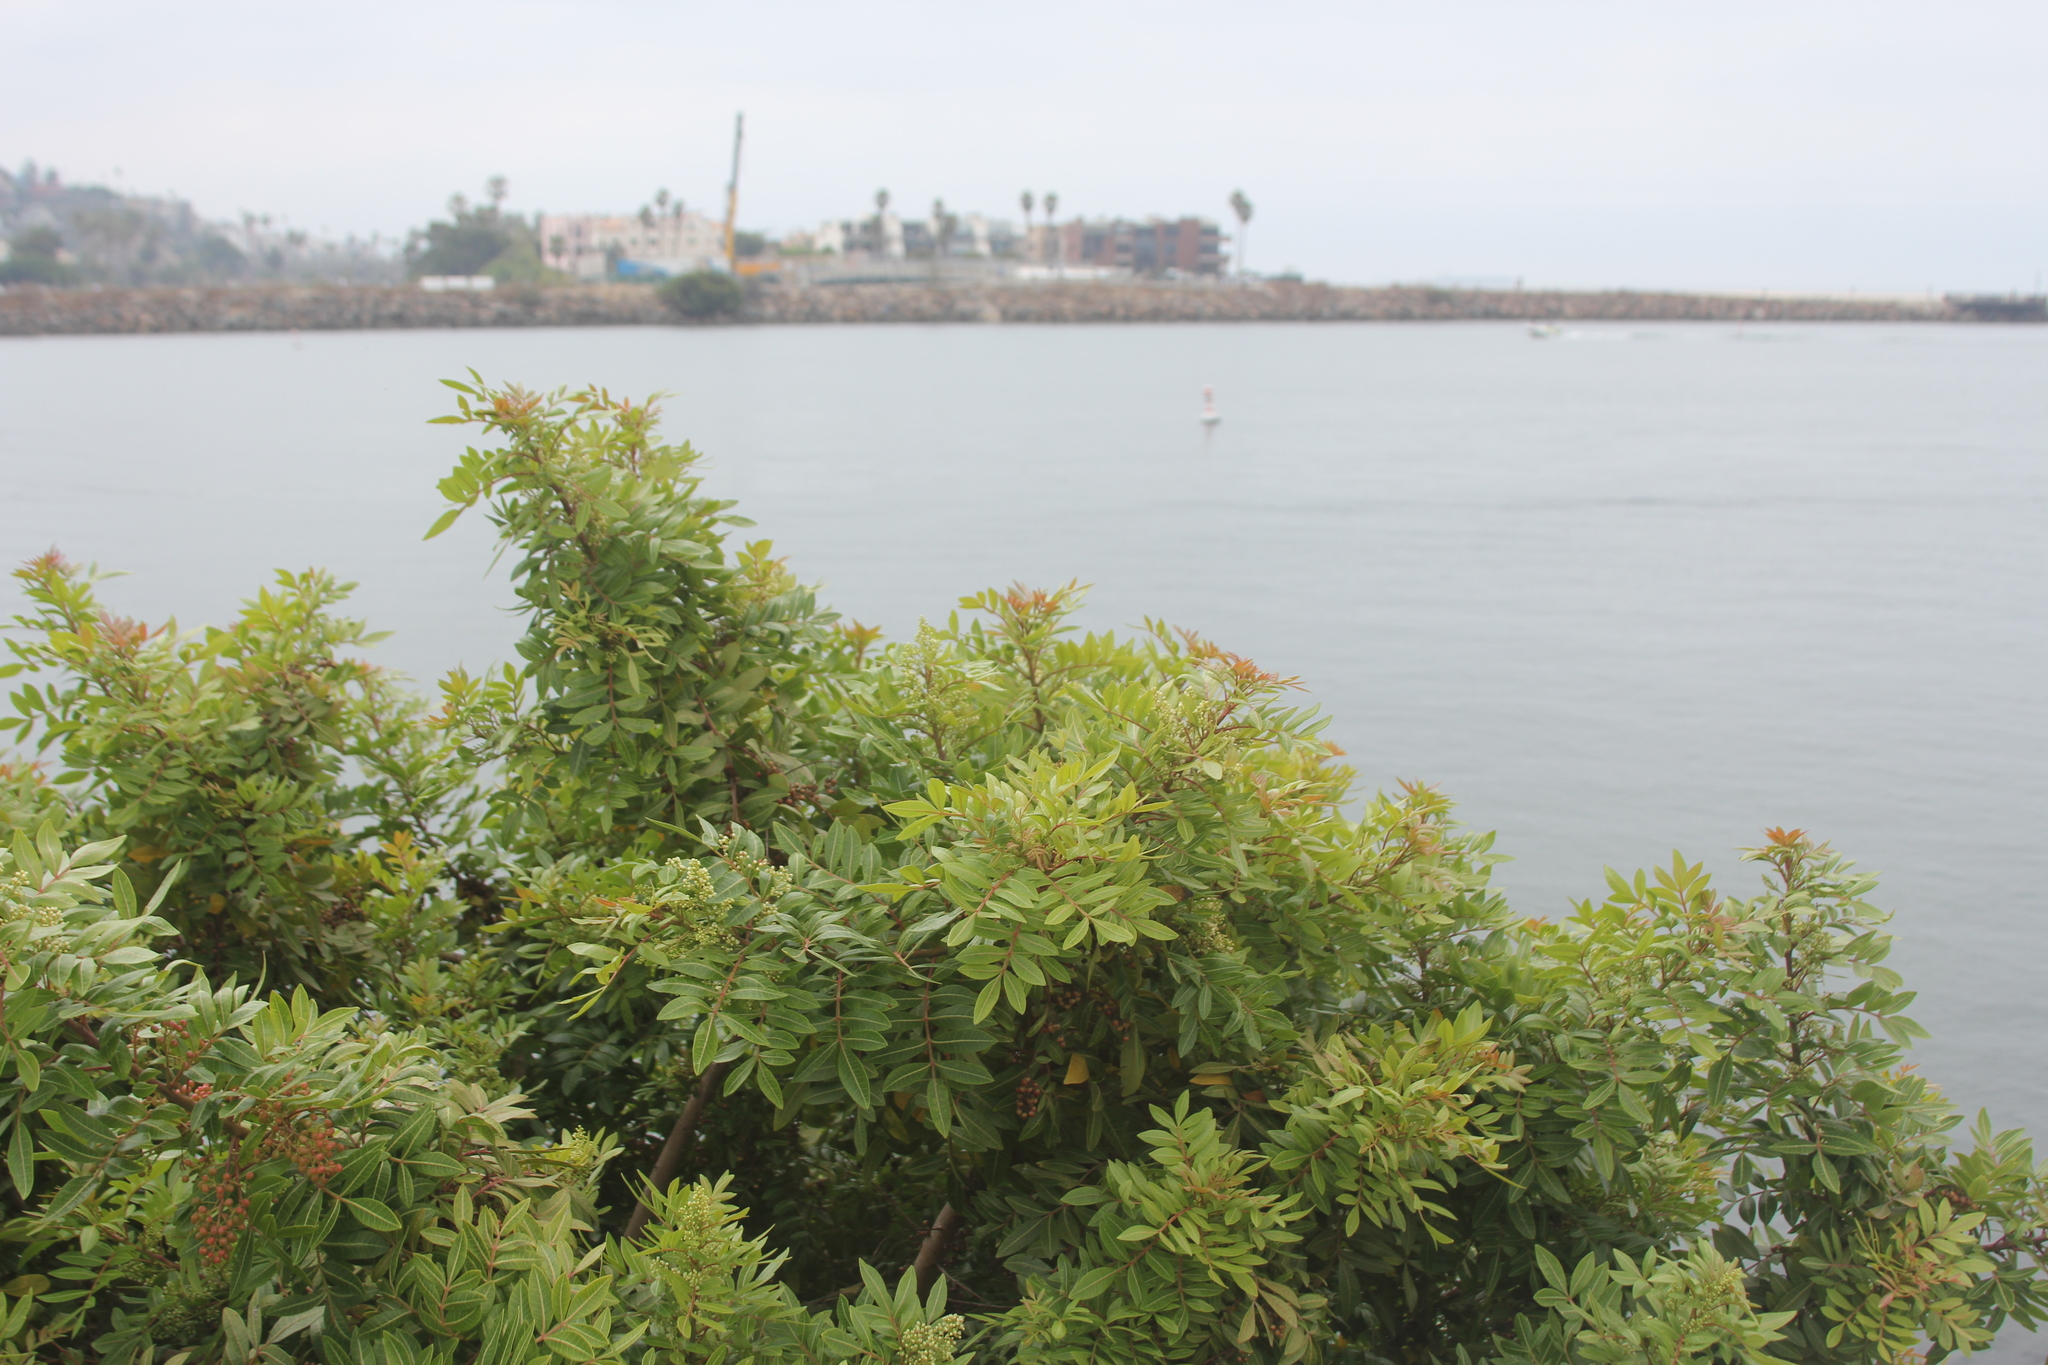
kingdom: Plantae
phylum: Tracheophyta
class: Magnoliopsida
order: Sapindales
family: Anacardiaceae
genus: Schinus
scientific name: Schinus terebinthifolia
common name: Brazilian peppertree
